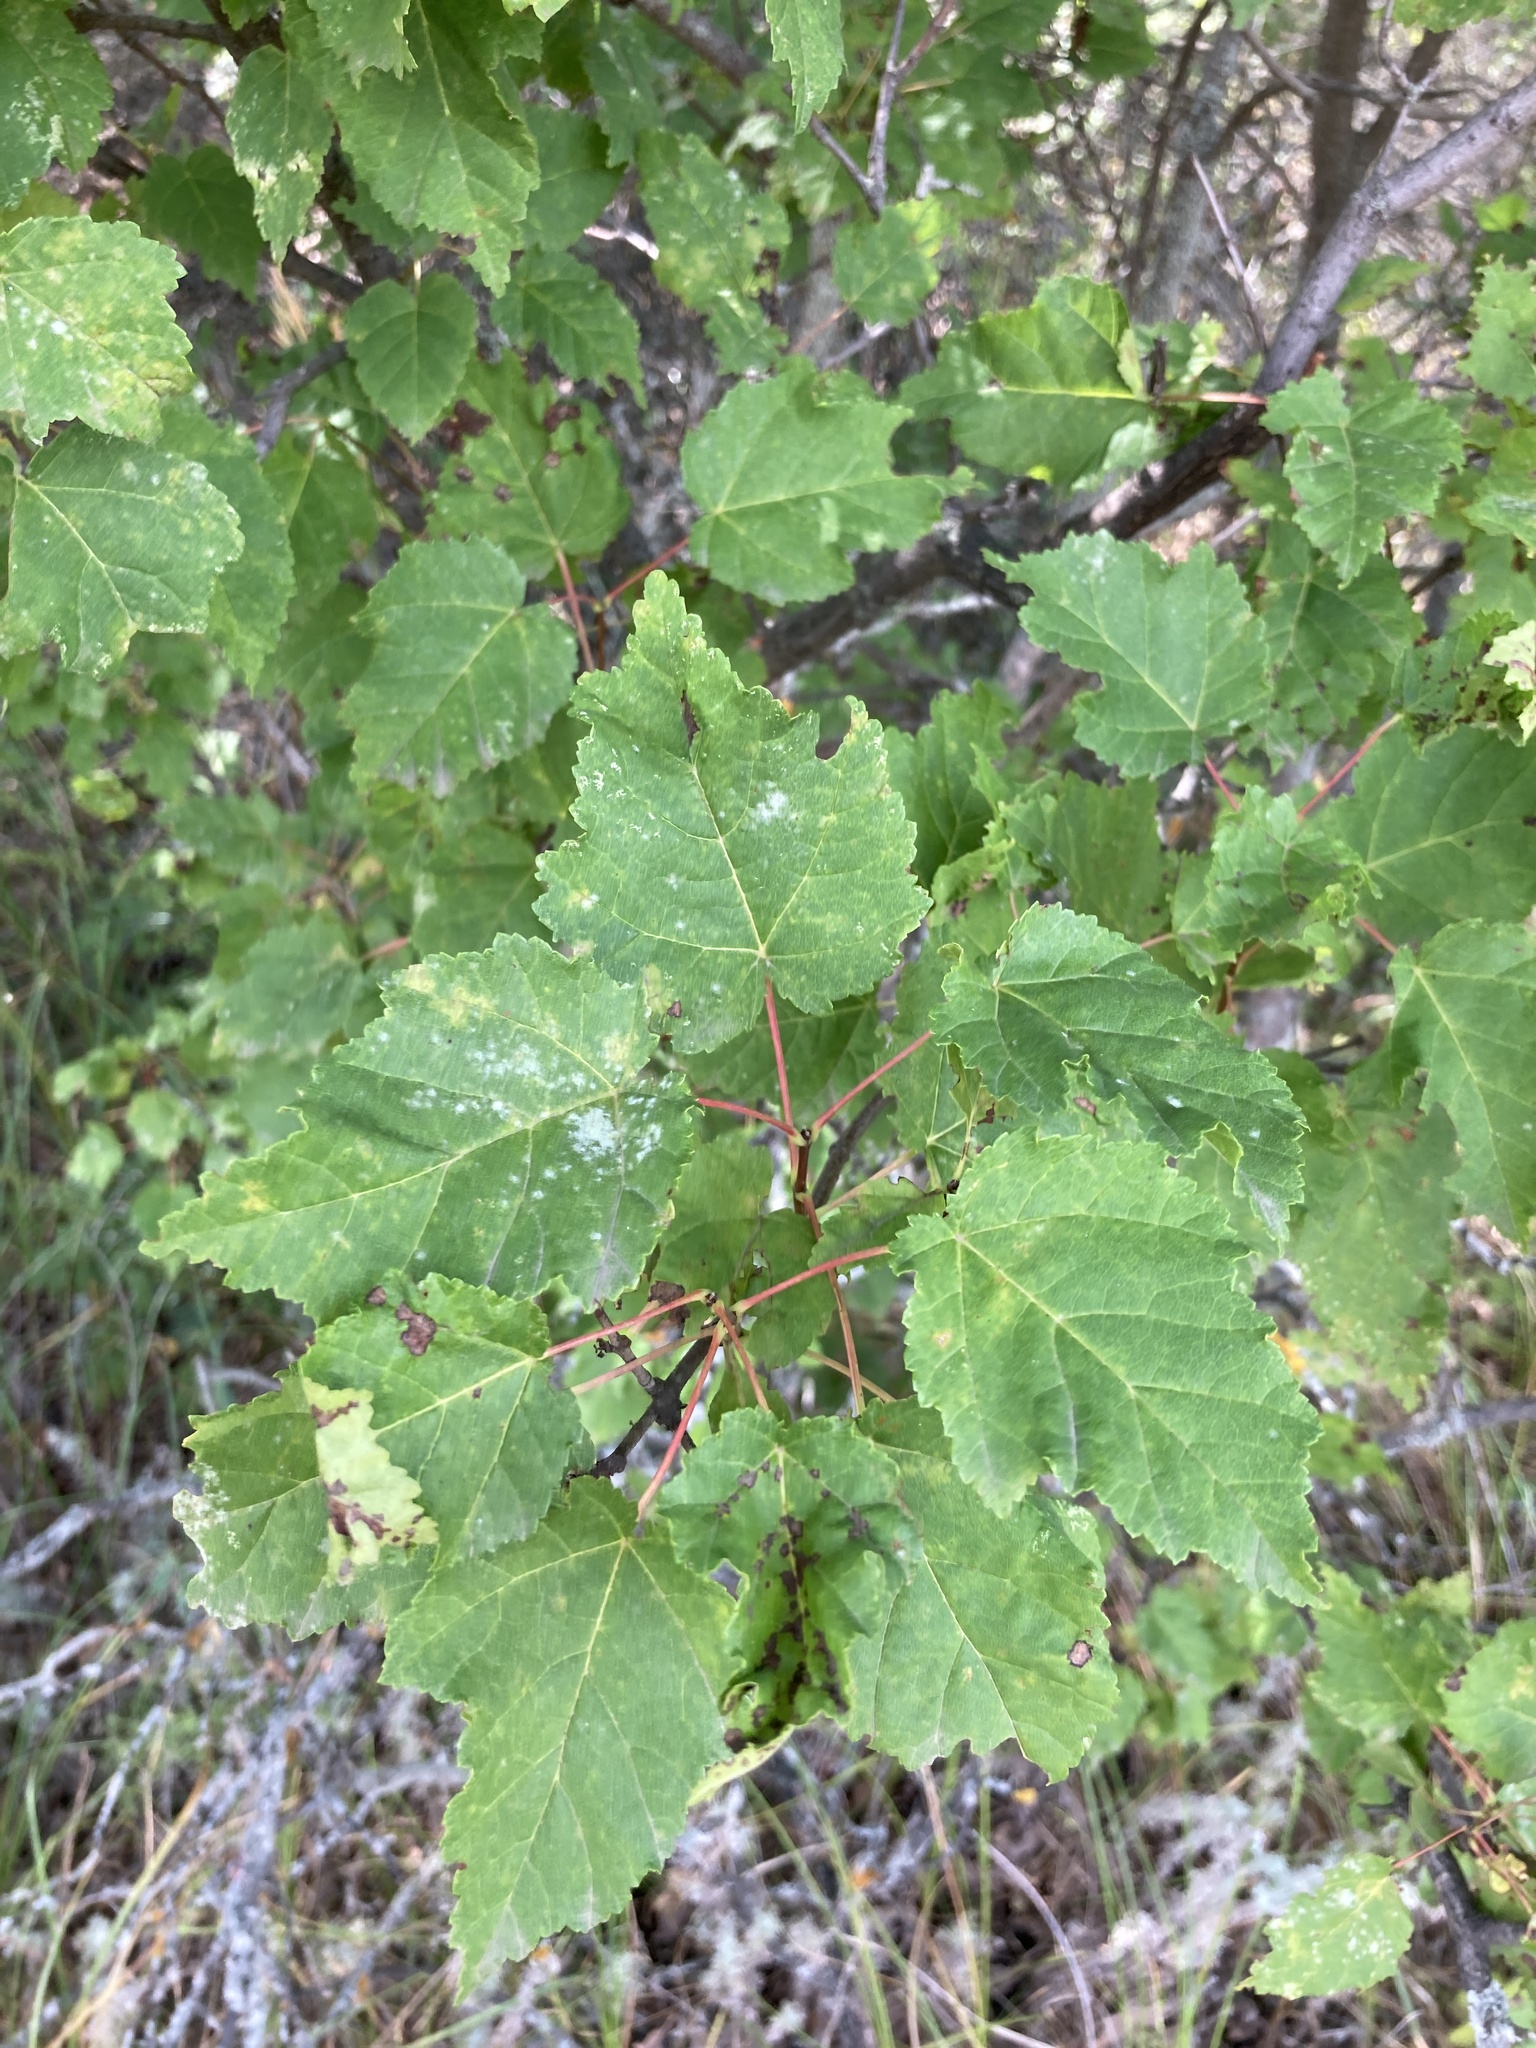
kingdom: Plantae
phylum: Tracheophyta
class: Magnoliopsida
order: Sapindales
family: Sapindaceae
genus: Acer
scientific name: Acer tataricum
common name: Tartar maple
